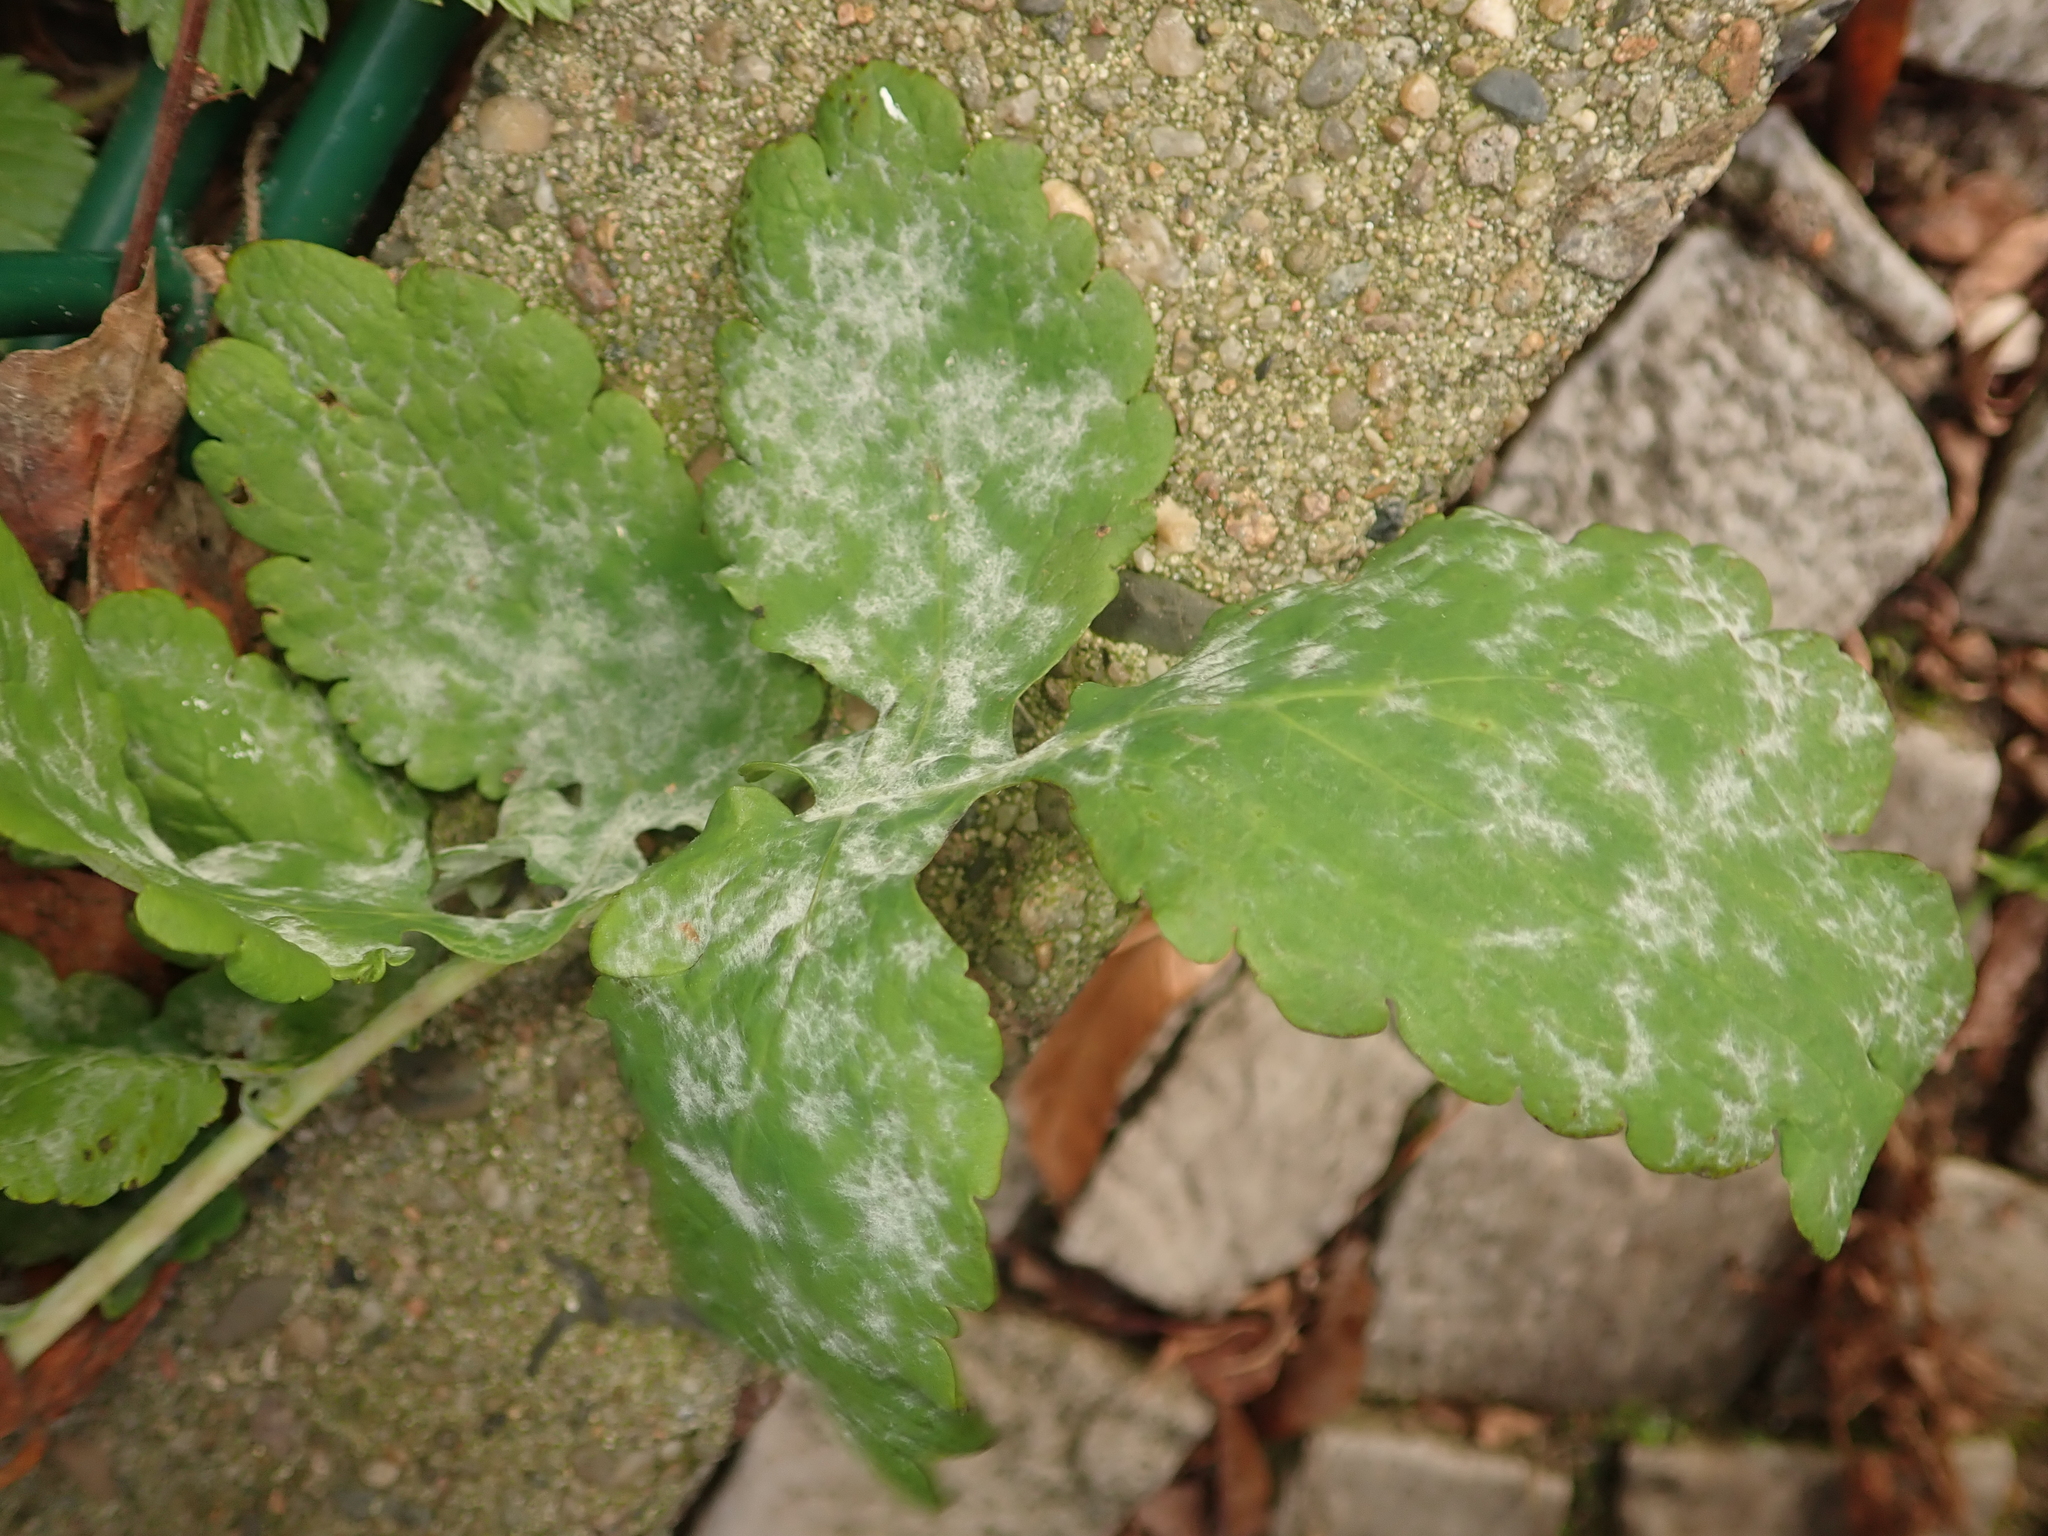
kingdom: Plantae
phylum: Tracheophyta
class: Magnoliopsida
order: Ranunculales
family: Papaveraceae
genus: Chelidonium
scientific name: Chelidonium majus
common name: Greater celandine
